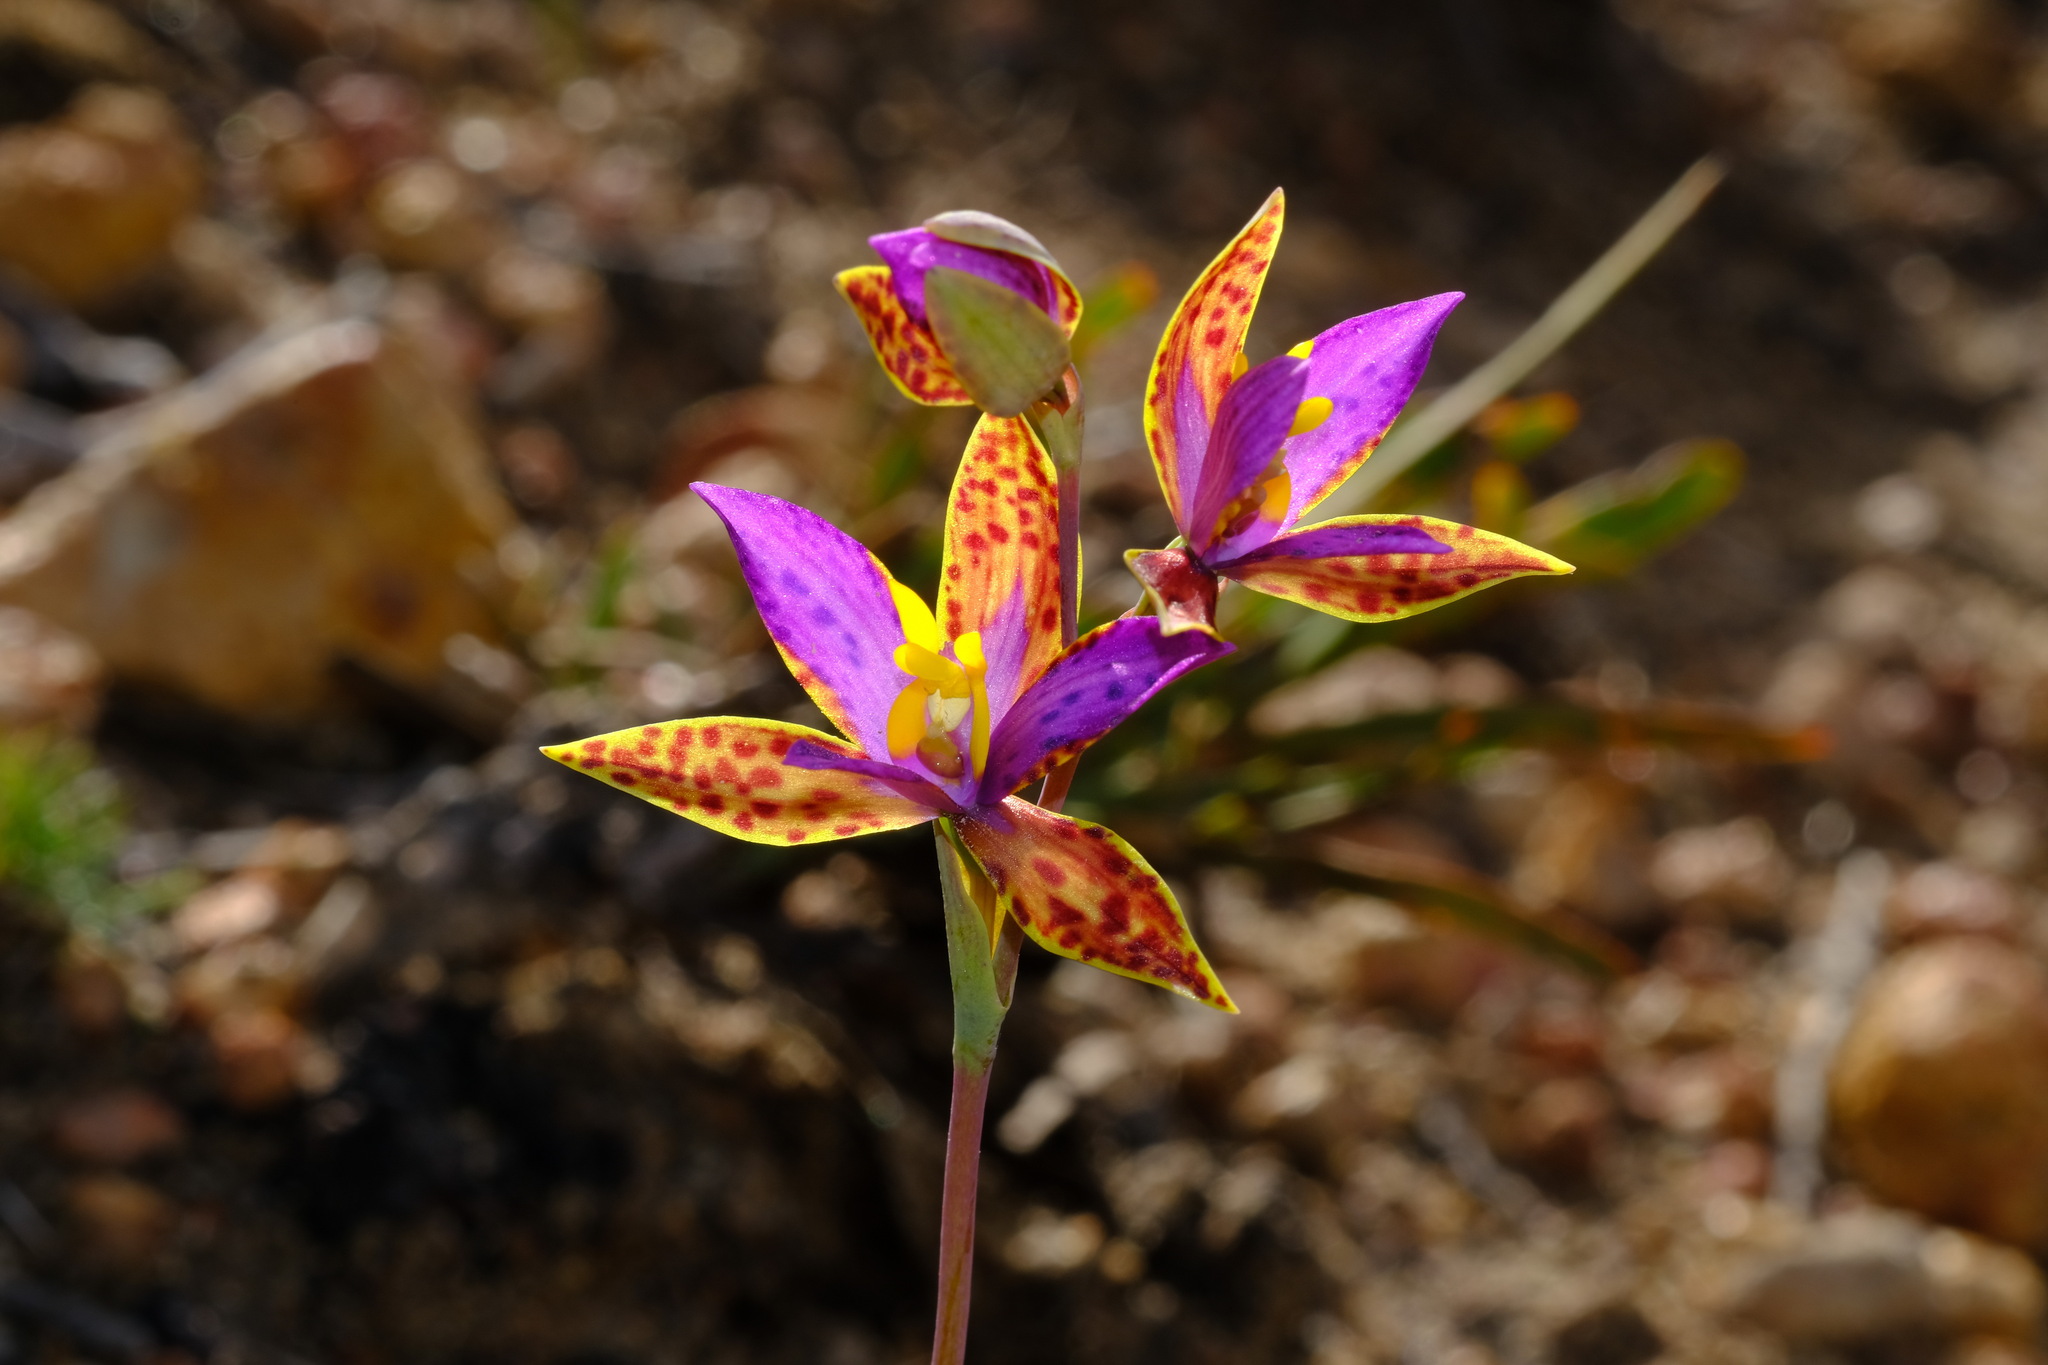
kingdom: Plantae
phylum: Tracheophyta
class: Liliopsida
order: Asparagales
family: Orchidaceae
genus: Thelymitra
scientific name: Thelymitra pulcherrima
